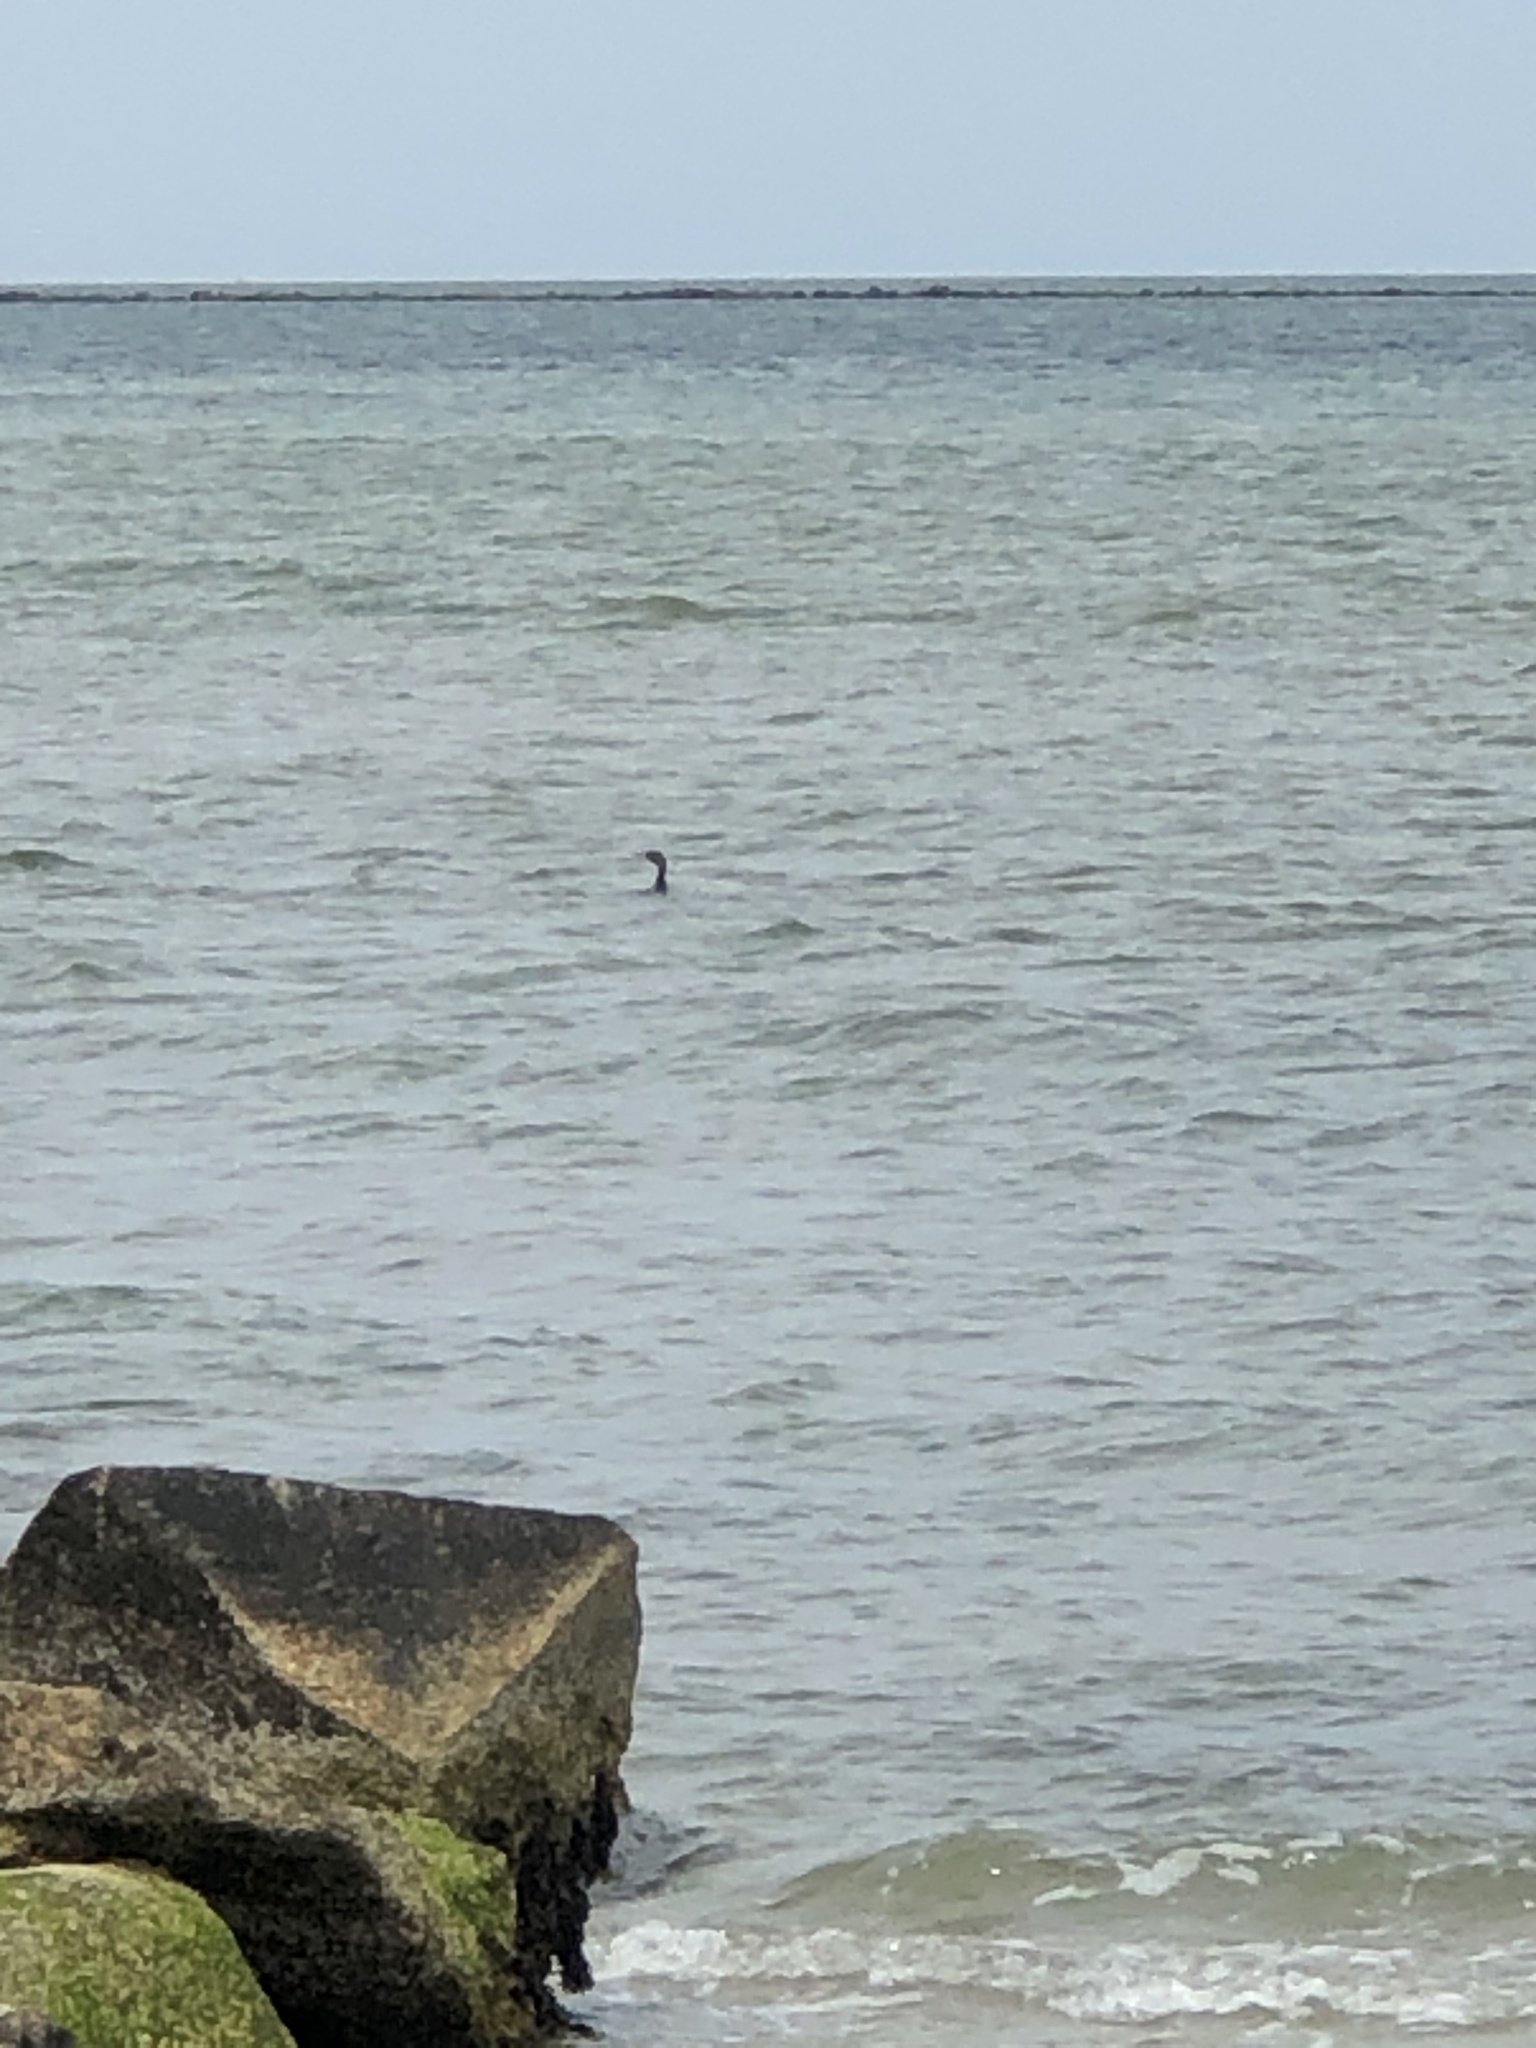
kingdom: Animalia
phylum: Chordata
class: Aves
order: Suliformes
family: Phalacrocoracidae
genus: Phalacrocorax
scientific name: Phalacrocorax auritus
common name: Double-crested cormorant
